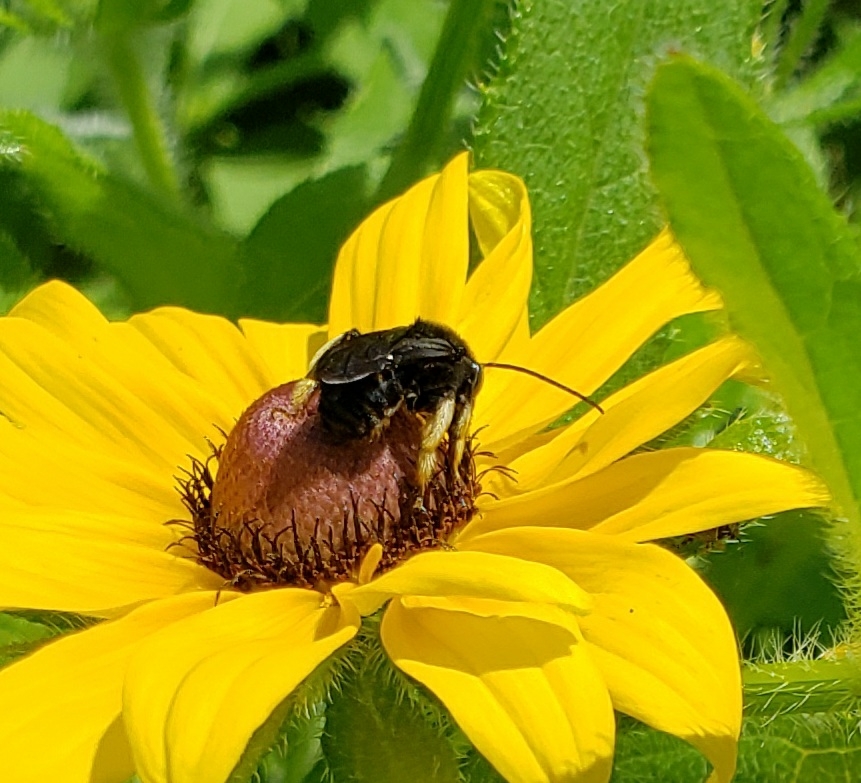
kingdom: Animalia
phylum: Arthropoda
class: Insecta
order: Hymenoptera
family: Apidae
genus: Melissodes
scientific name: Melissodes bimaculatus
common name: Two-spotted long-horned bee
